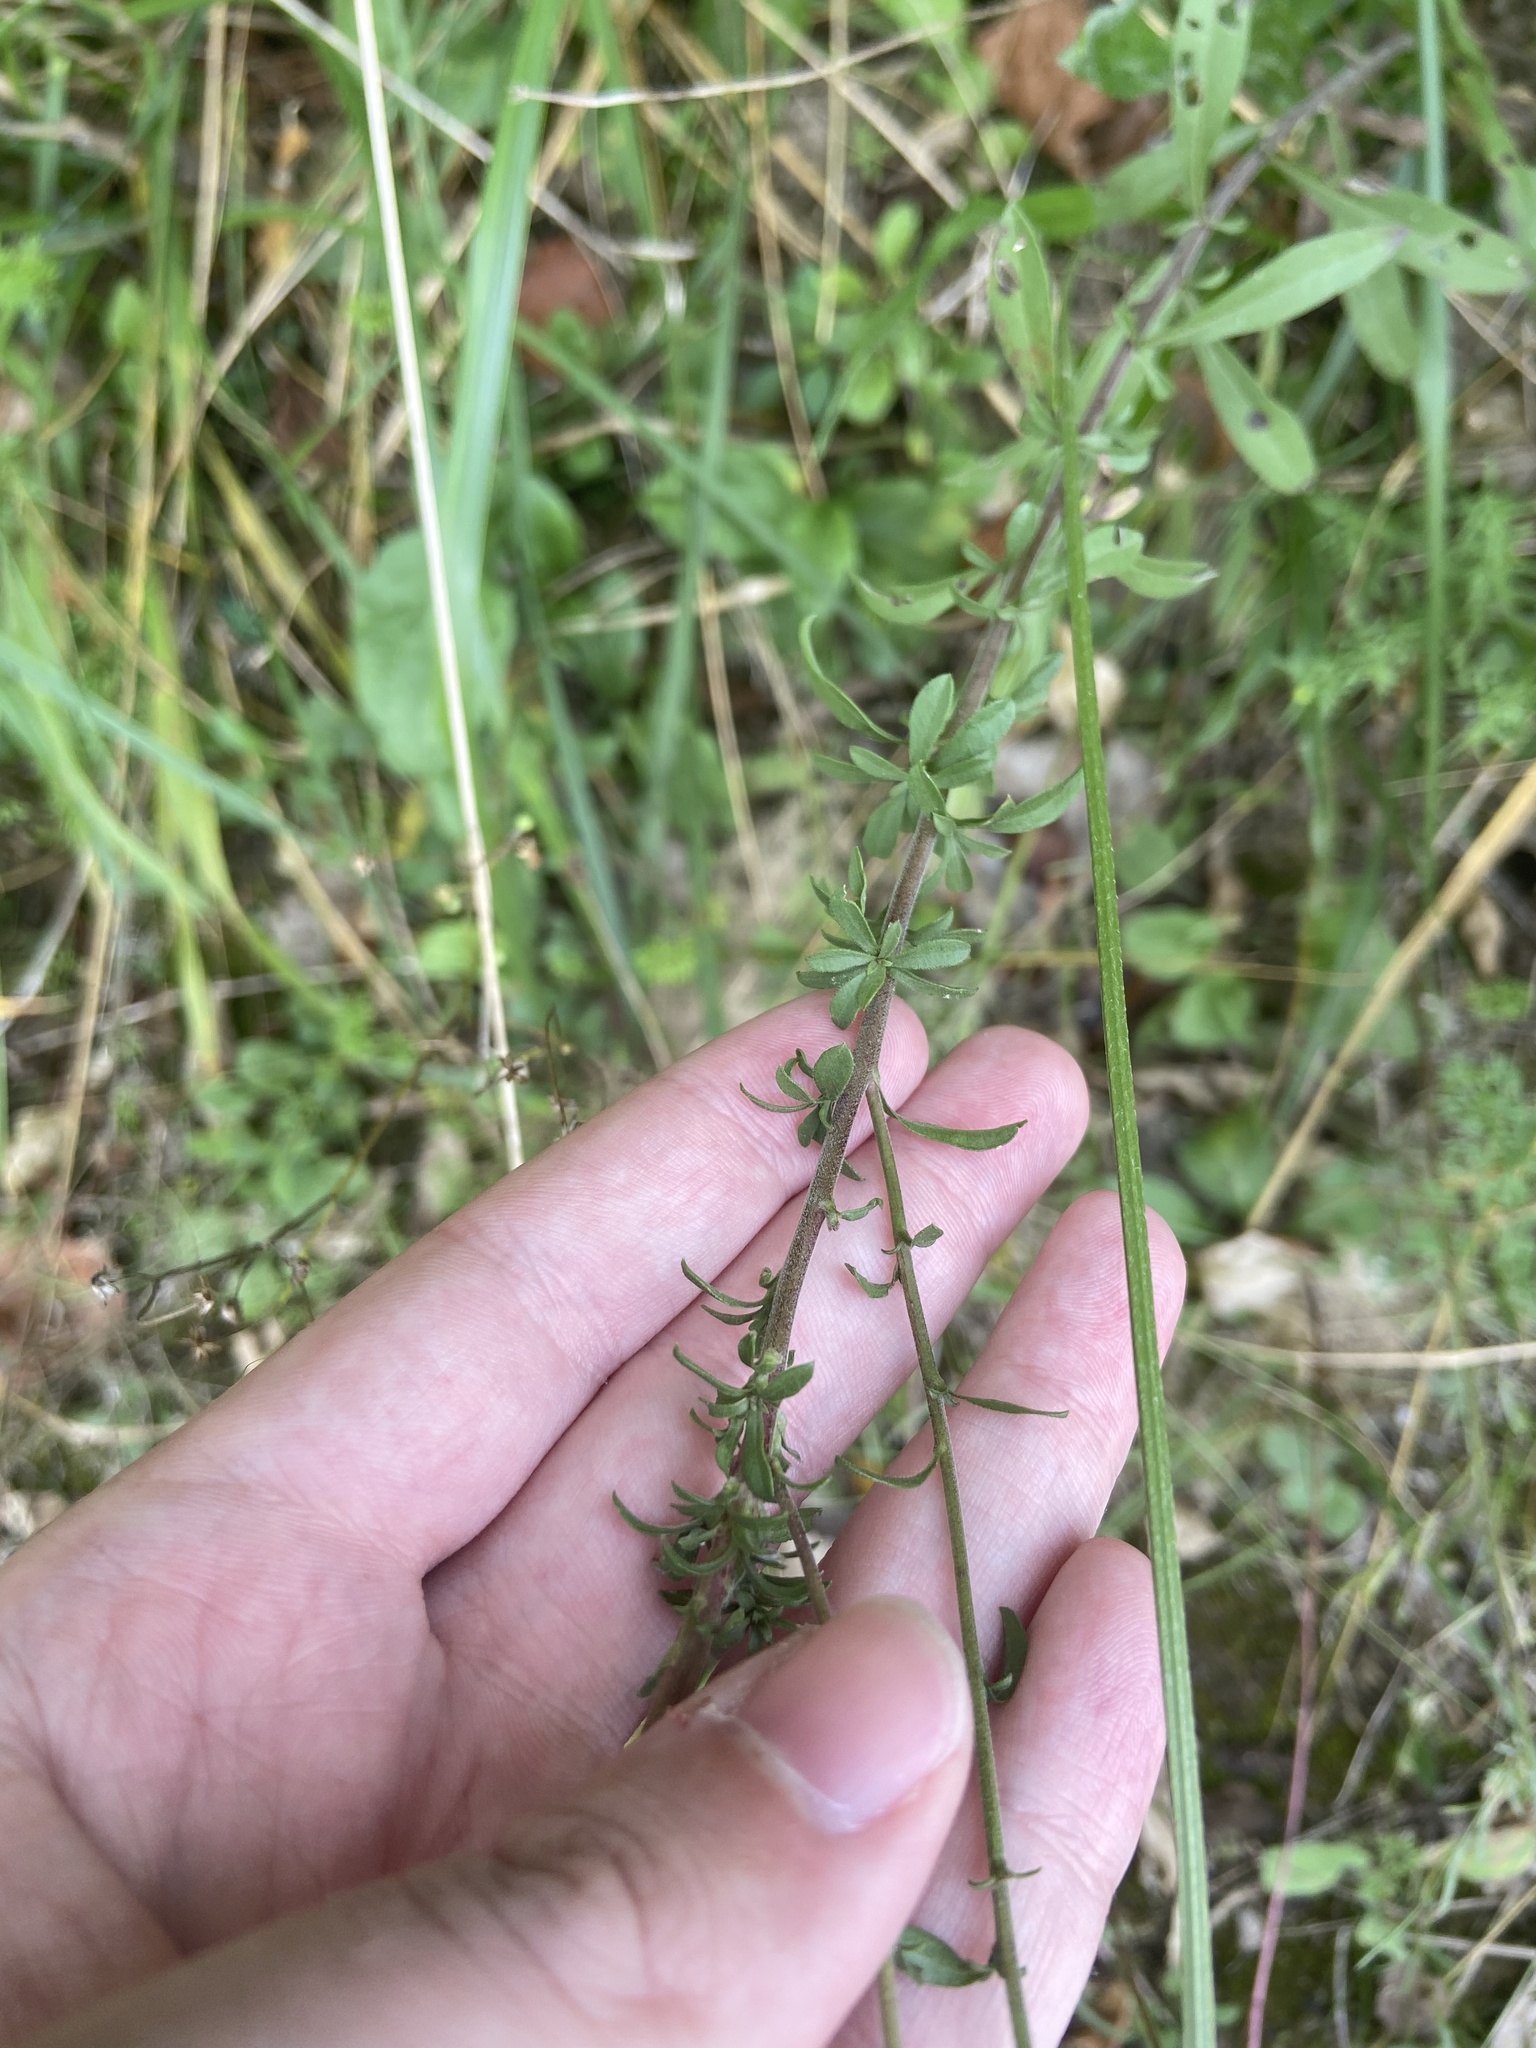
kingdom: Plantae
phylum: Tracheophyta
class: Magnoliopsida
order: Asterales
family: Asteraceae
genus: Solidago
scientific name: Solidago nemoralis
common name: Grey goldenrod
